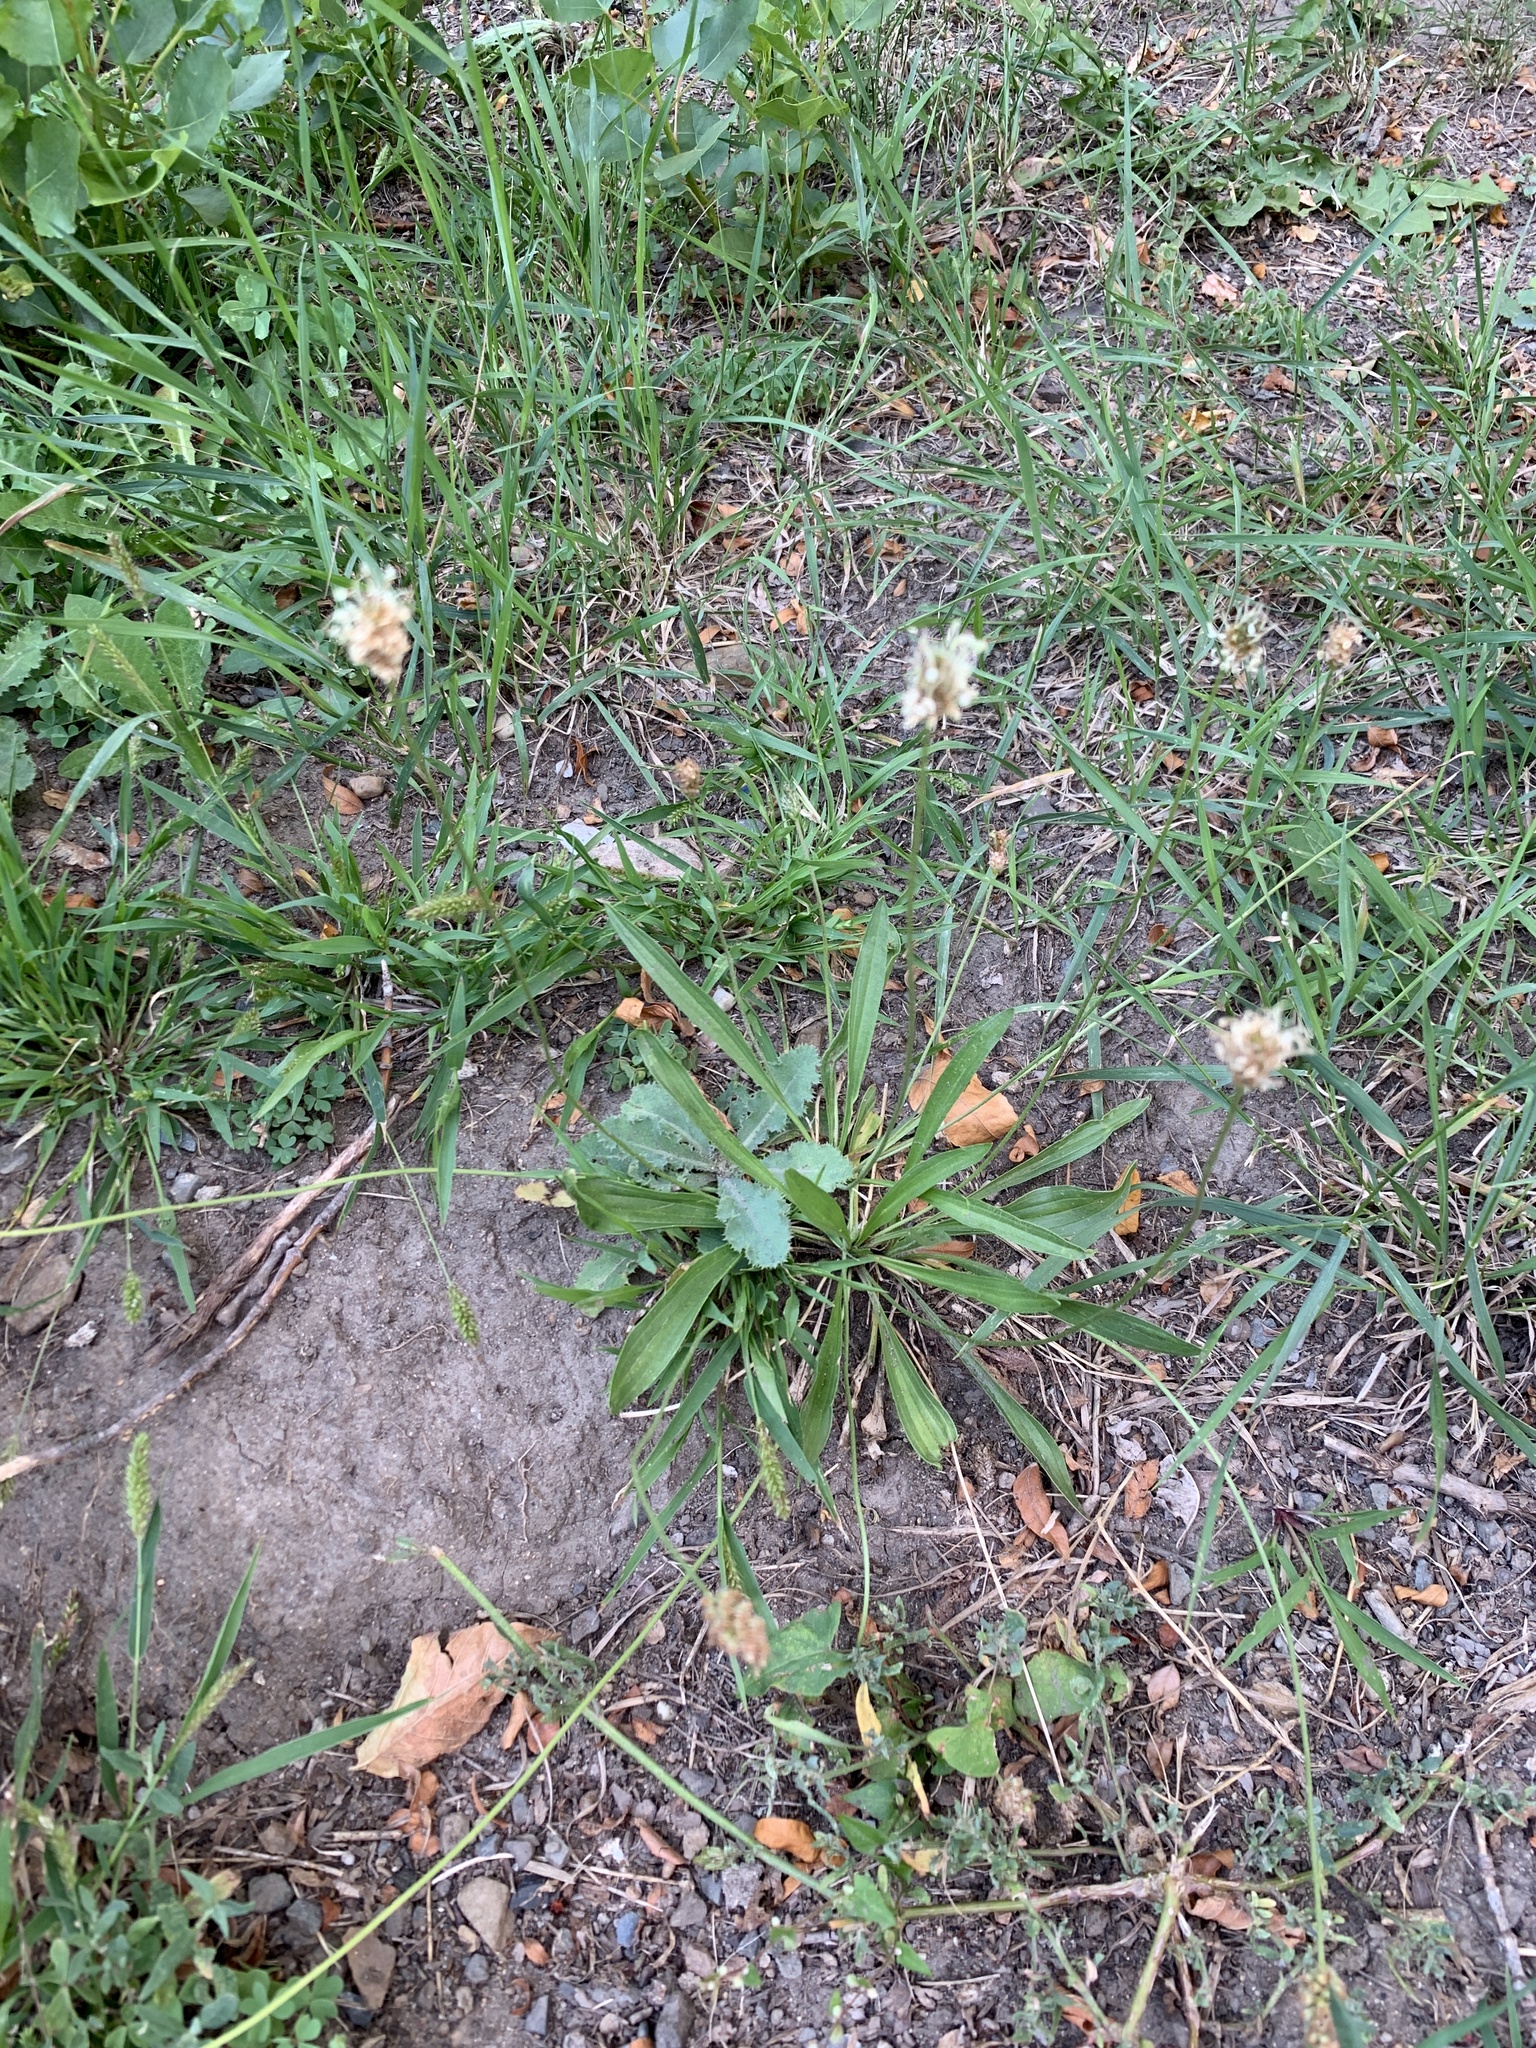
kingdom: Plantae
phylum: Tracheophyta
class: Magnoliopsida
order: Lamiales
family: Plantaginaceae
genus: Plantago
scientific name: Plantago lanceolata
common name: Ribwort plantain
